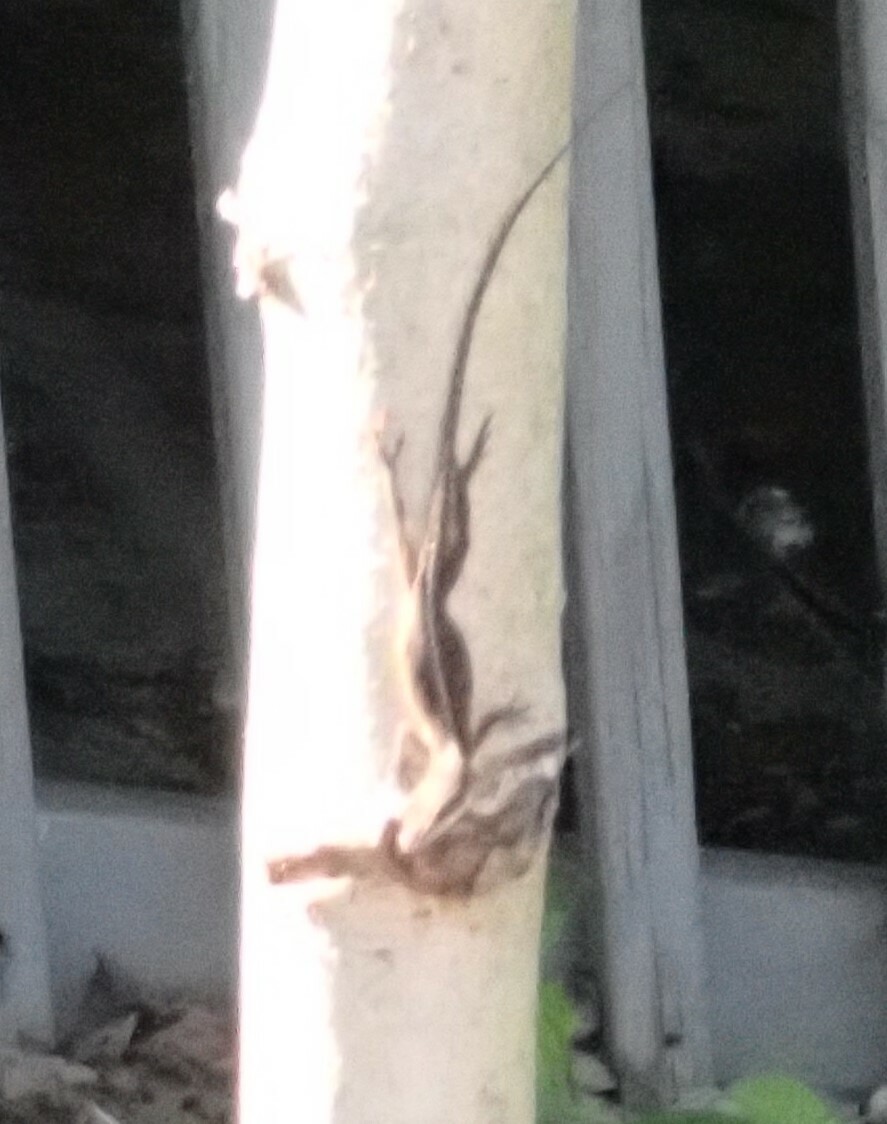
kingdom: Animalia
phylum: Chordata
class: Squamata
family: Dactyloidae
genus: Anolis
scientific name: Anolis carolinensis
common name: Green anole
